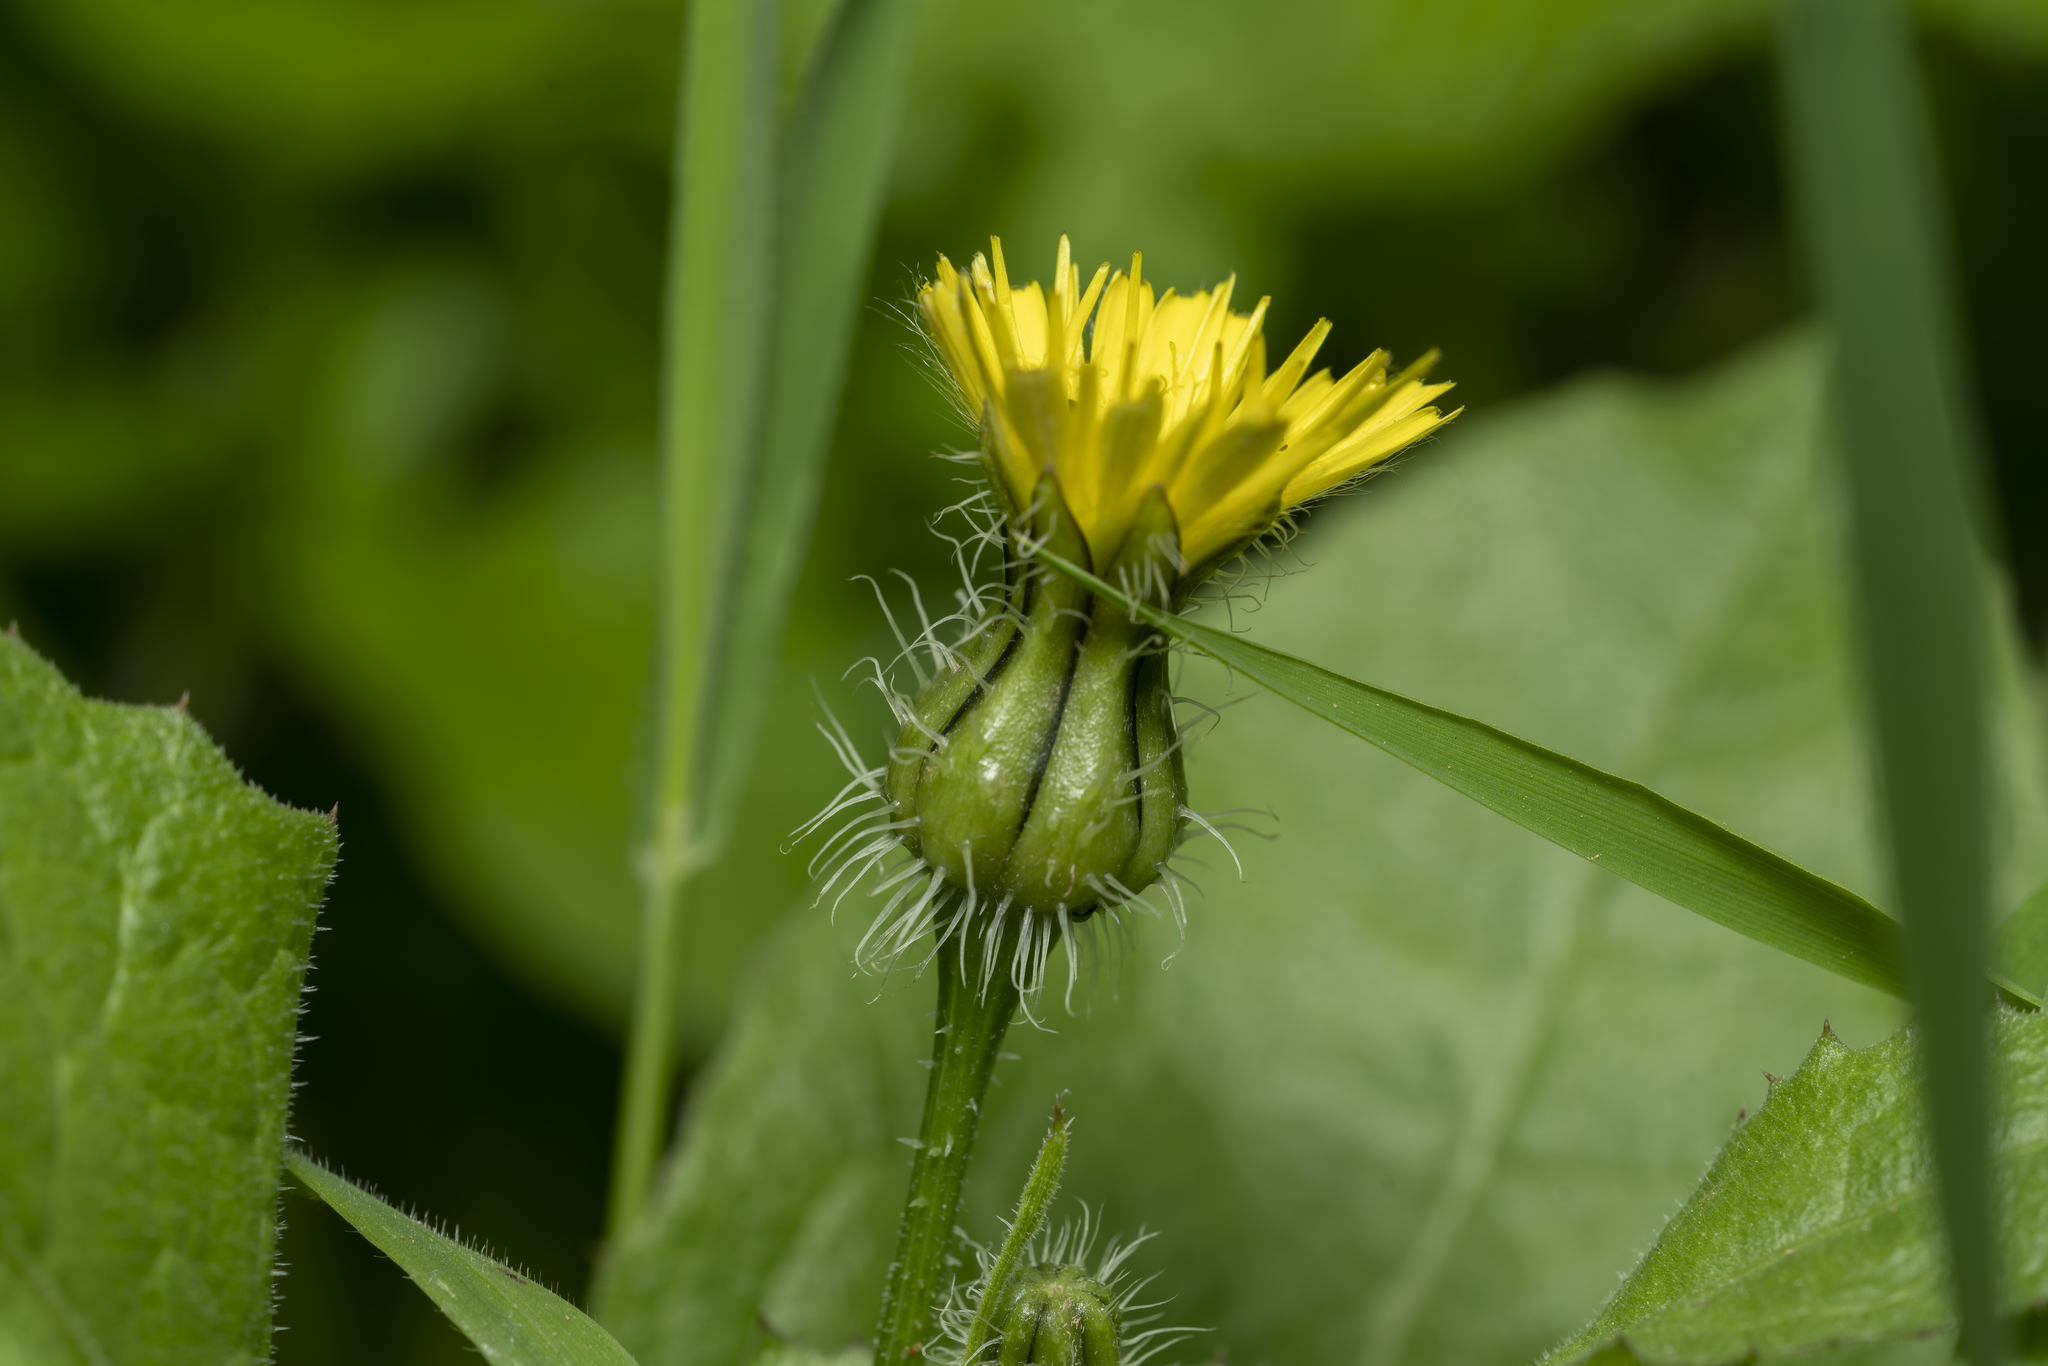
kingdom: Plantae
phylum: Tracheophyta
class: Magnoliopsida
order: Asterales
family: Asteraceae
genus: Urospermum
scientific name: Urospermum picroides
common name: False hawkbit
